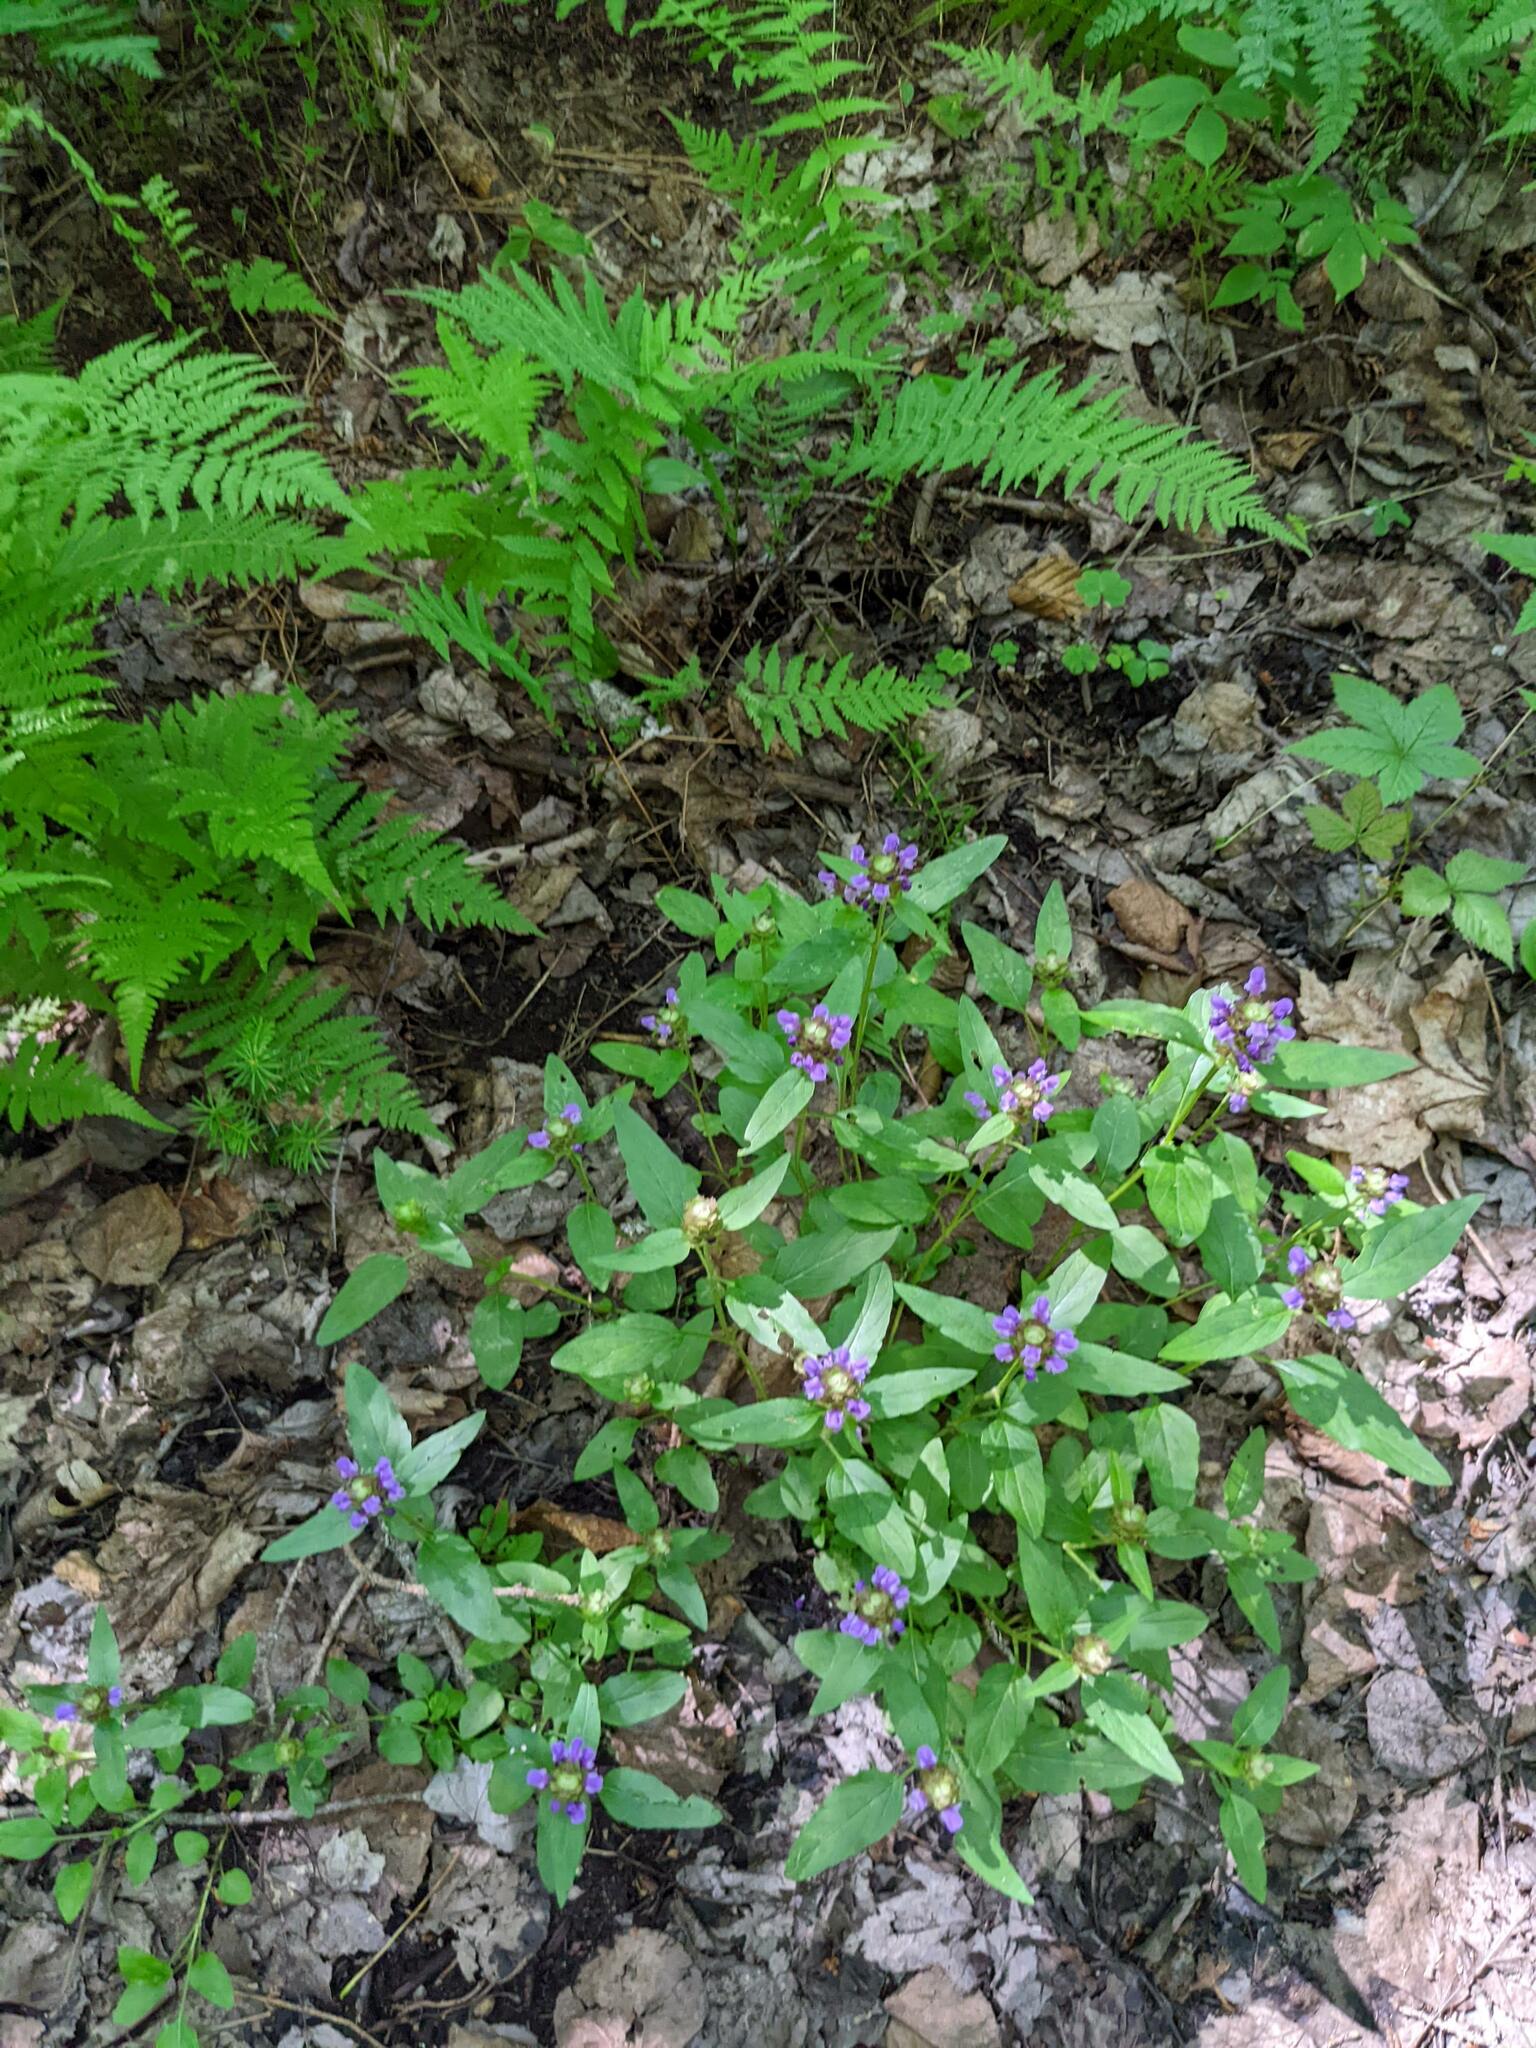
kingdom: Plantae
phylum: Tracheophyta
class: Magnoliopsida
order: Lamiales
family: Lamiaceae
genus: Prunella
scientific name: Prunella vulgaris
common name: Heal-all
